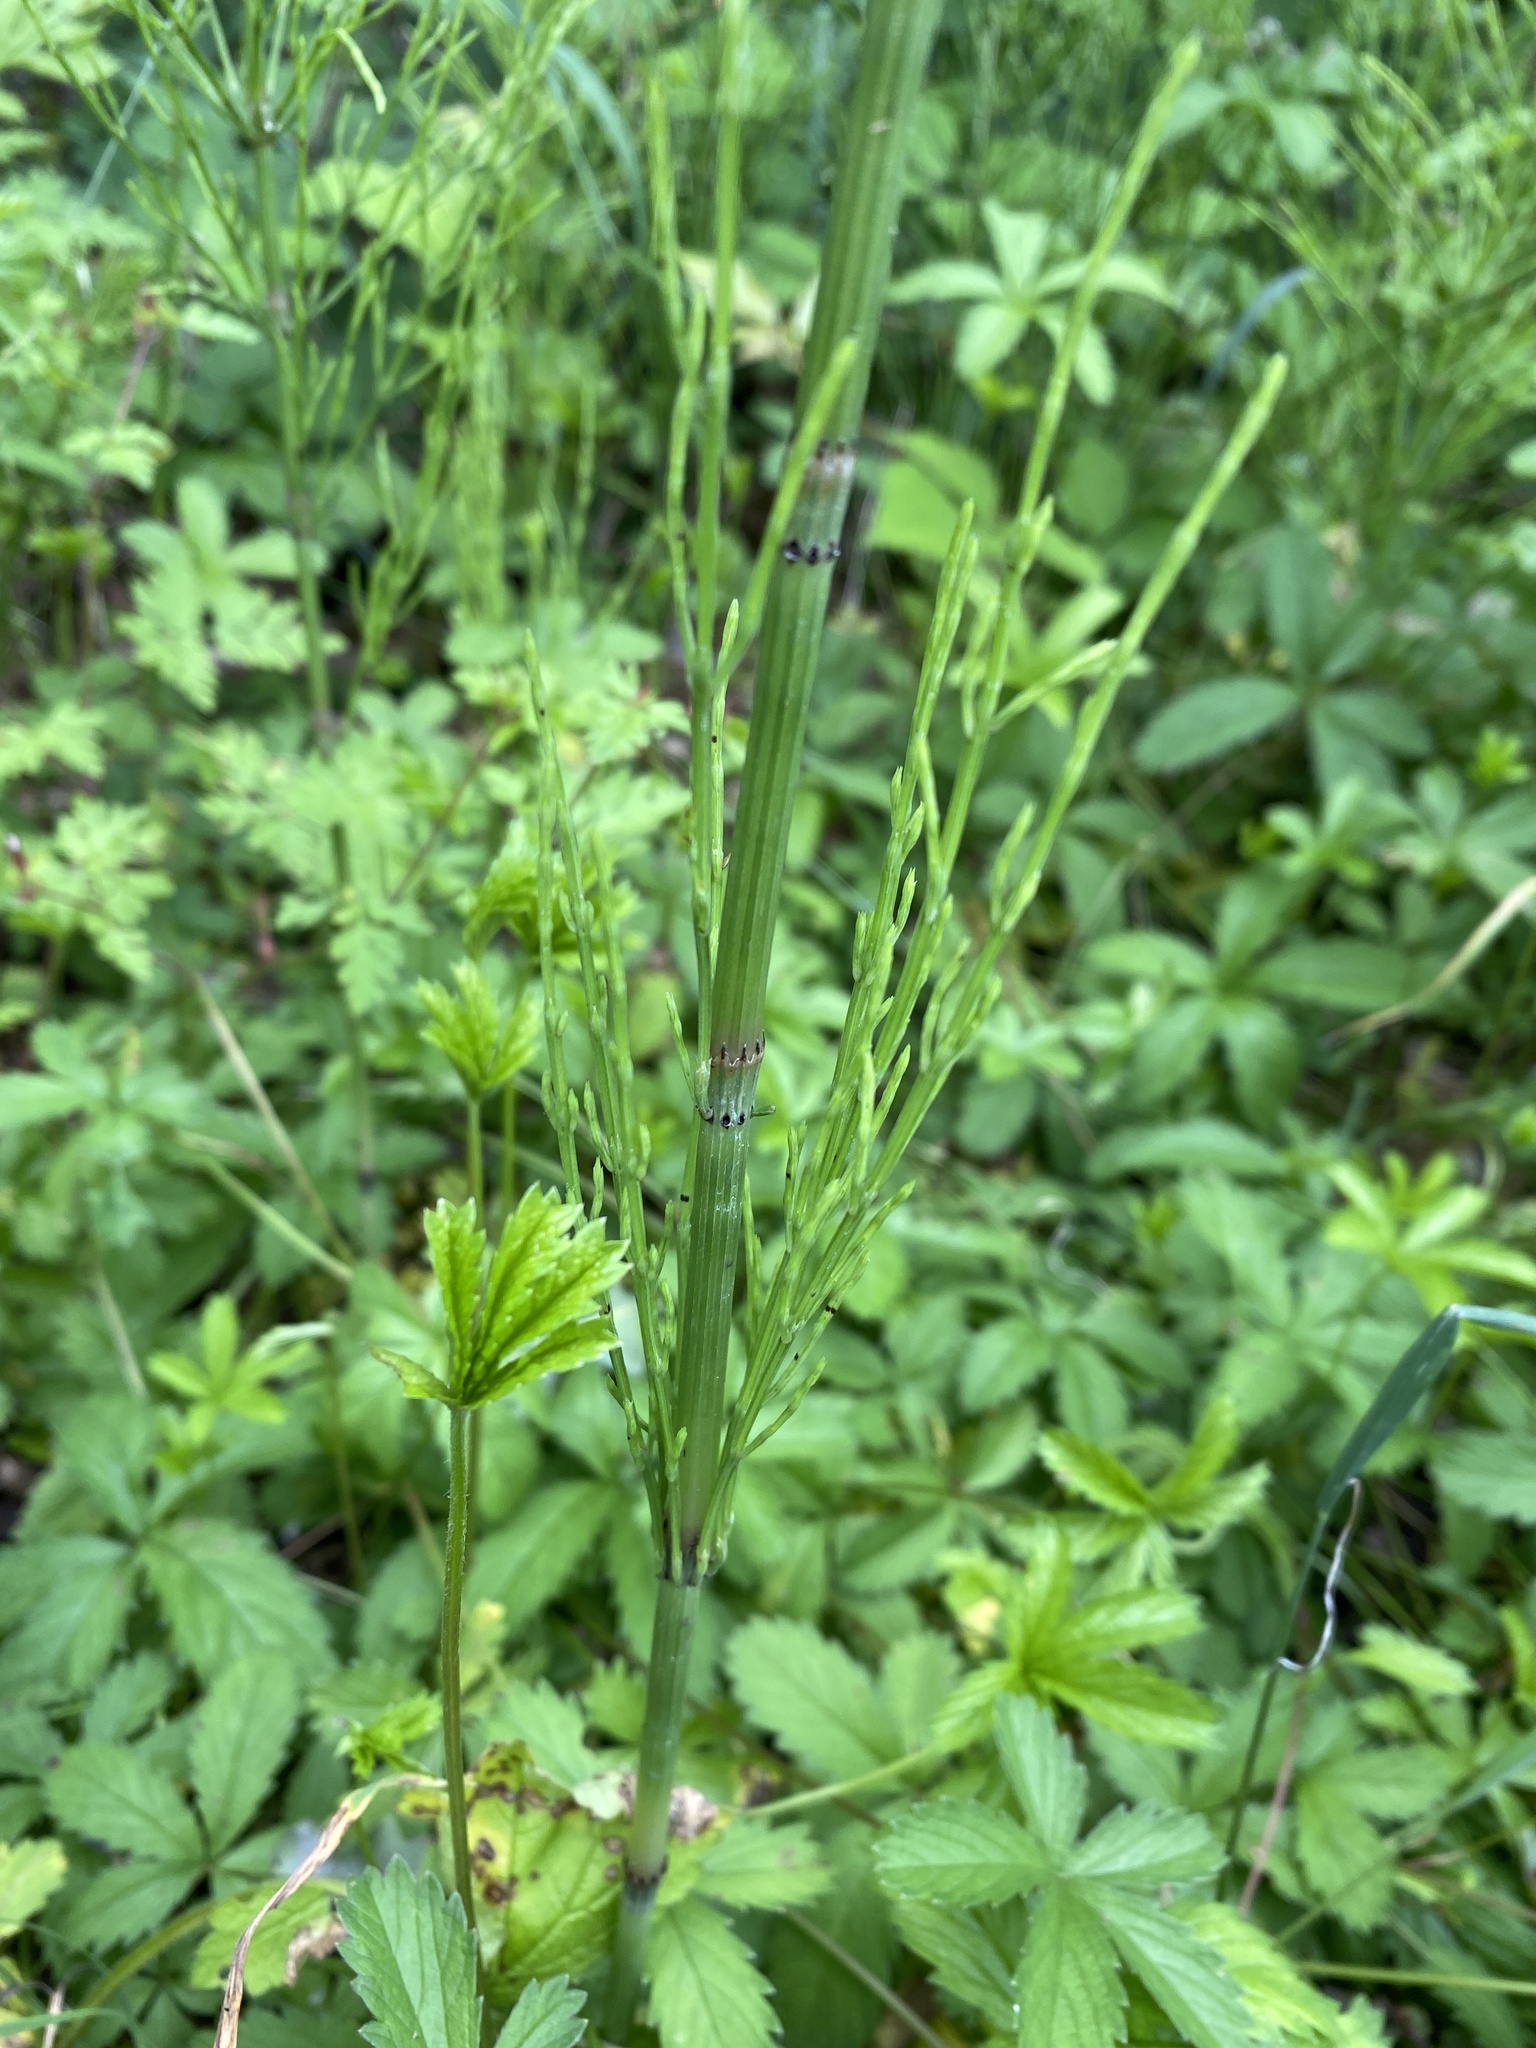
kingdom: Plantae
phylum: Tracheophyta
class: Polypodiopsida
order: Equisetales
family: Equisetaceae
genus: Equisetum
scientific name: Equisetum arvense
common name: Field horsetail
